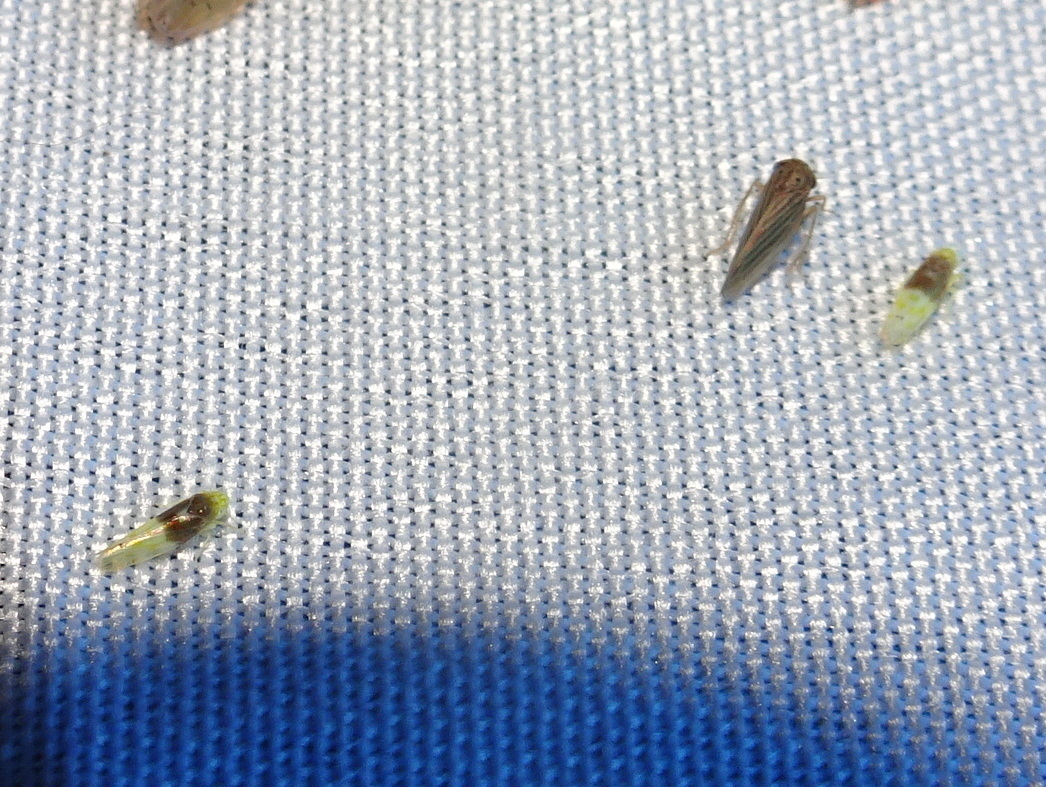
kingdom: Animalia
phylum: Arthropoda
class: Insecta
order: Hemiptera
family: Cicadellidae
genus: Eratoneura
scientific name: Eratoneura basilaris
